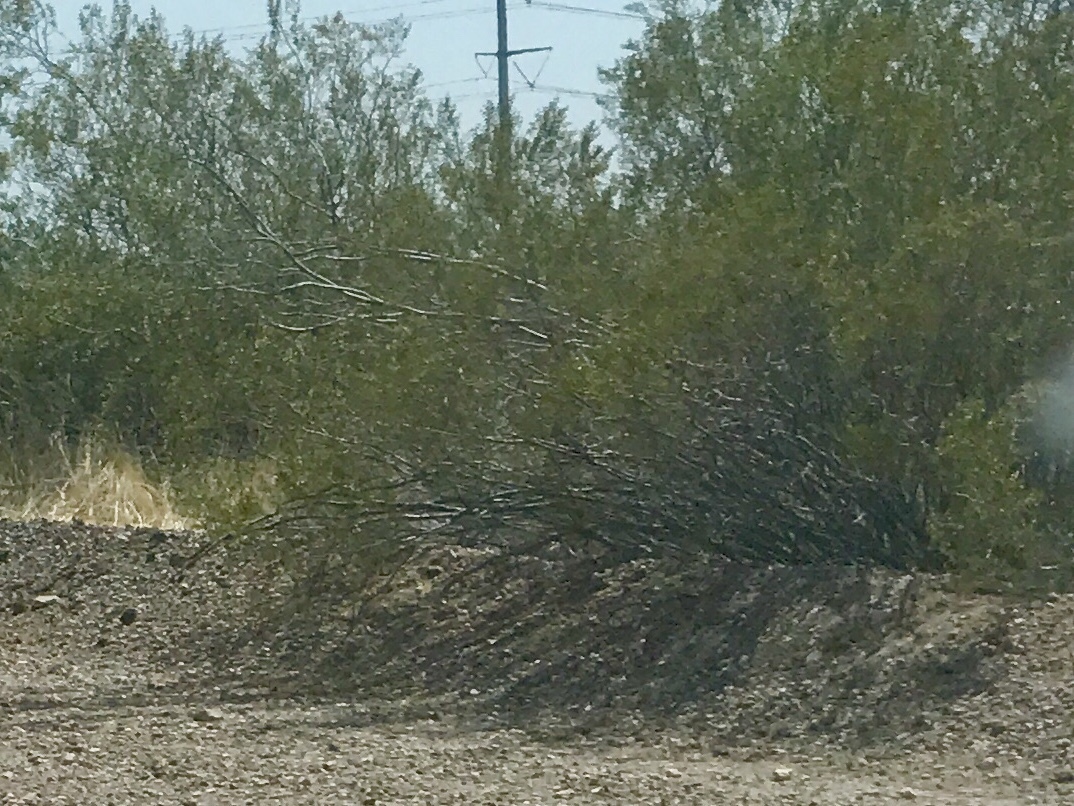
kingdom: Plantae
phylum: Tracheophyta
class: Magnoliopsida
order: Zygophyllales
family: Zygophyllaceae
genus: Larrea
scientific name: Larrea tridentata
